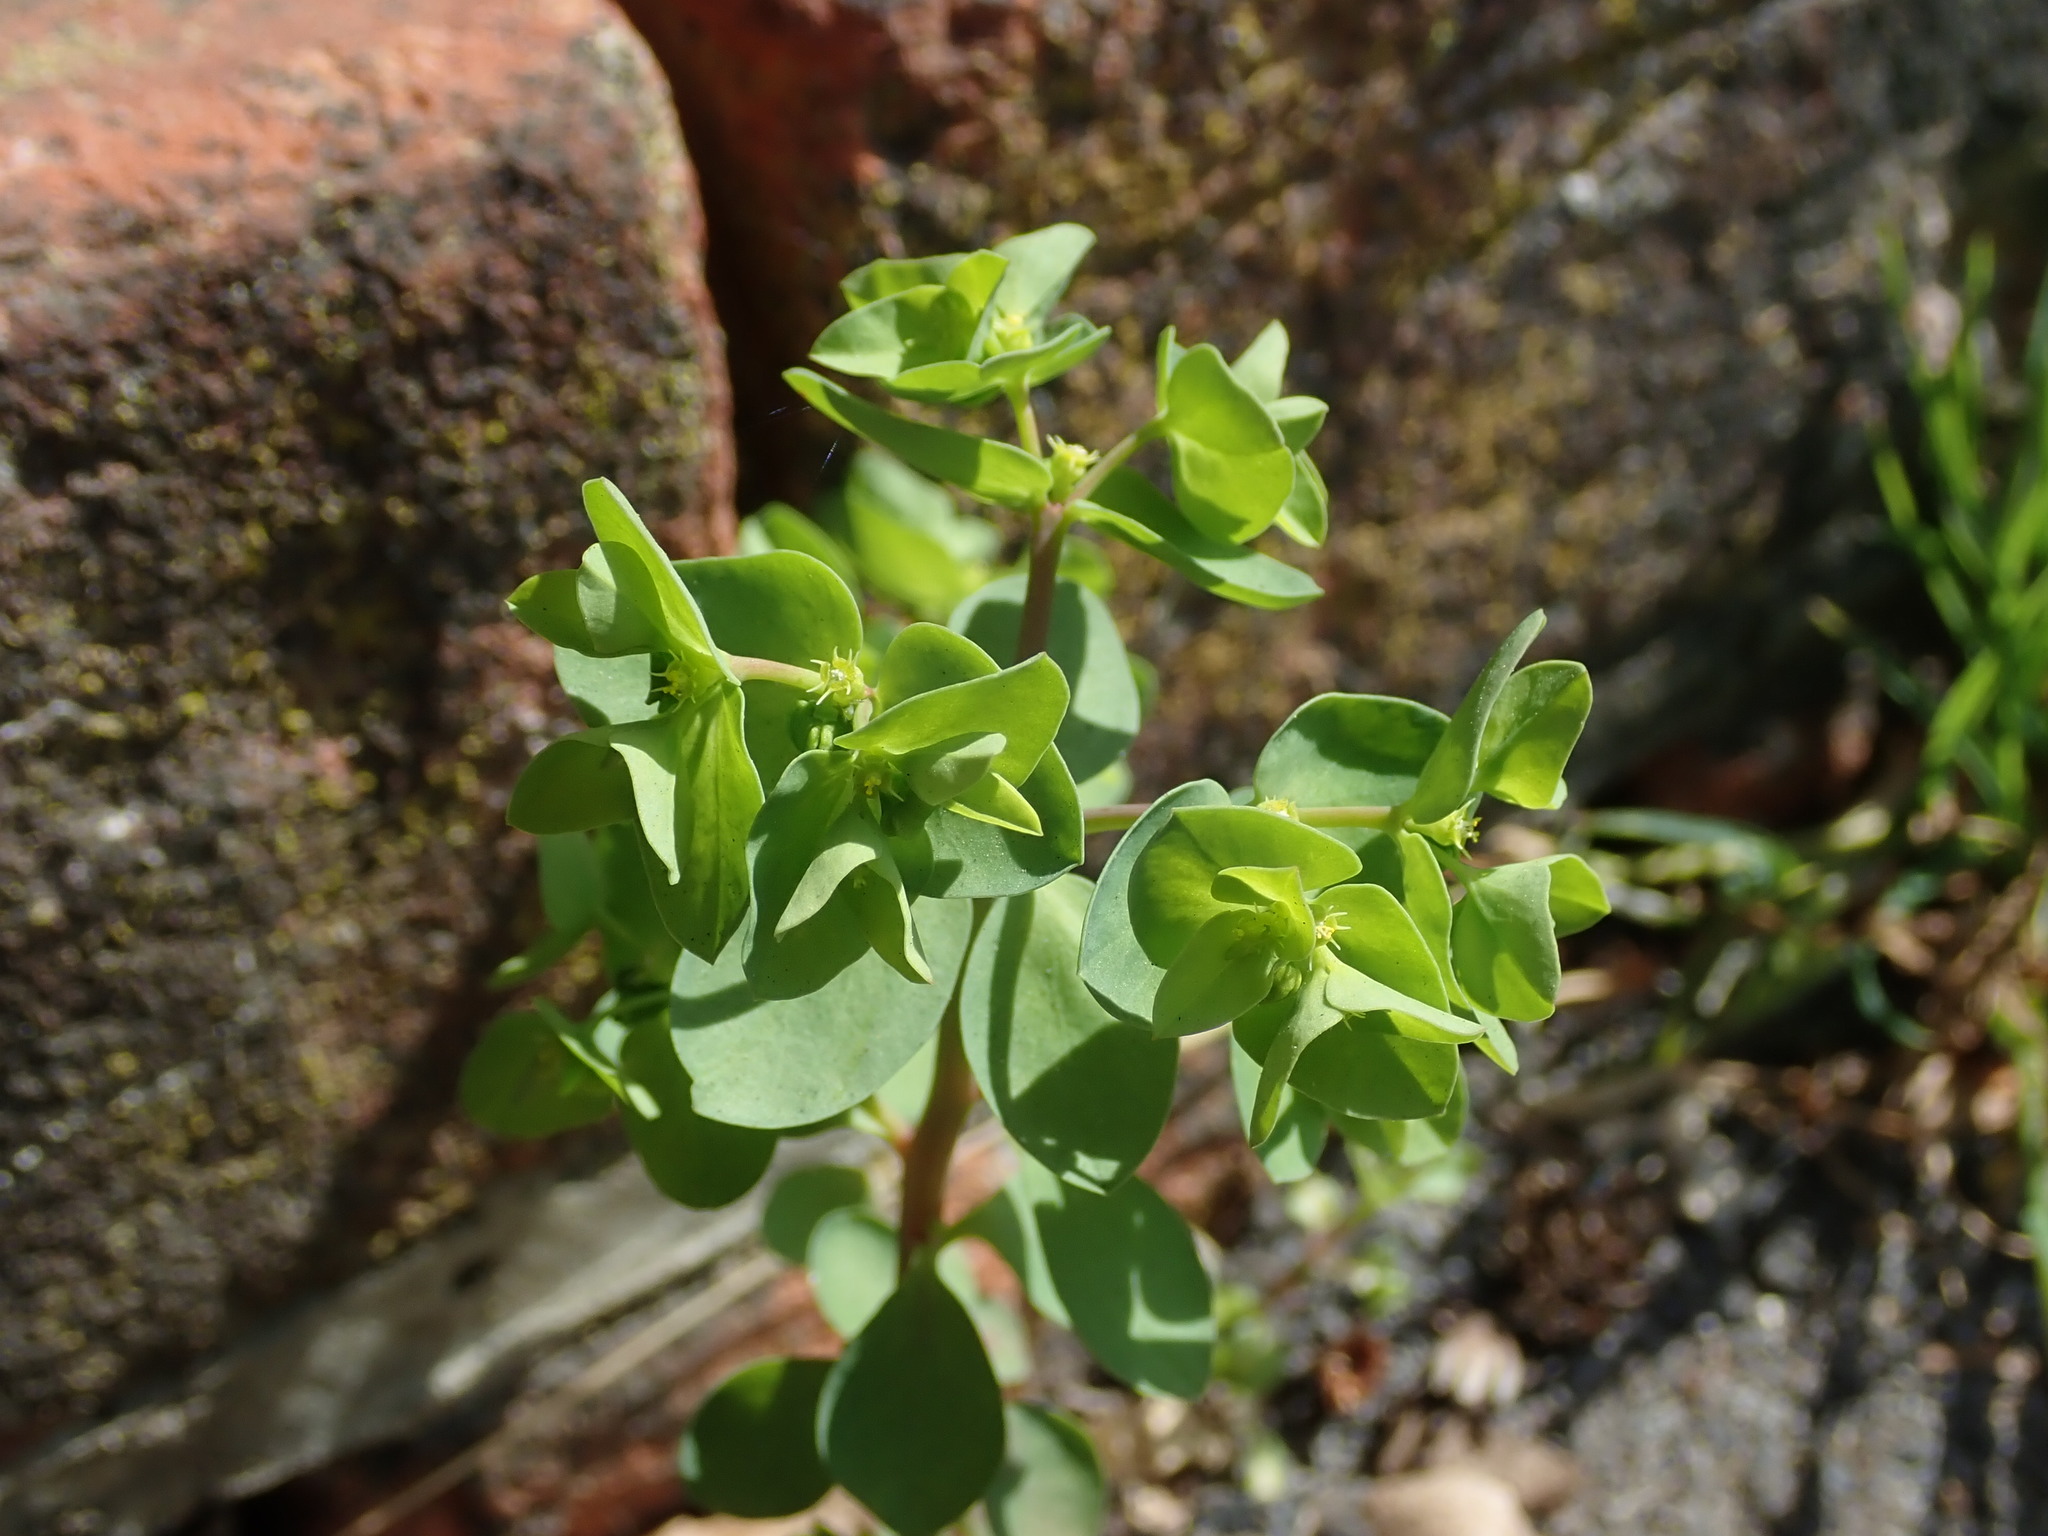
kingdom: Plantae
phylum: Tracheophyta
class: Magnoliopsida
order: Malpighiales
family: Euphorbiaceae
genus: Euphorbia
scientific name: Euphorbia peplus
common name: Petty spurge
